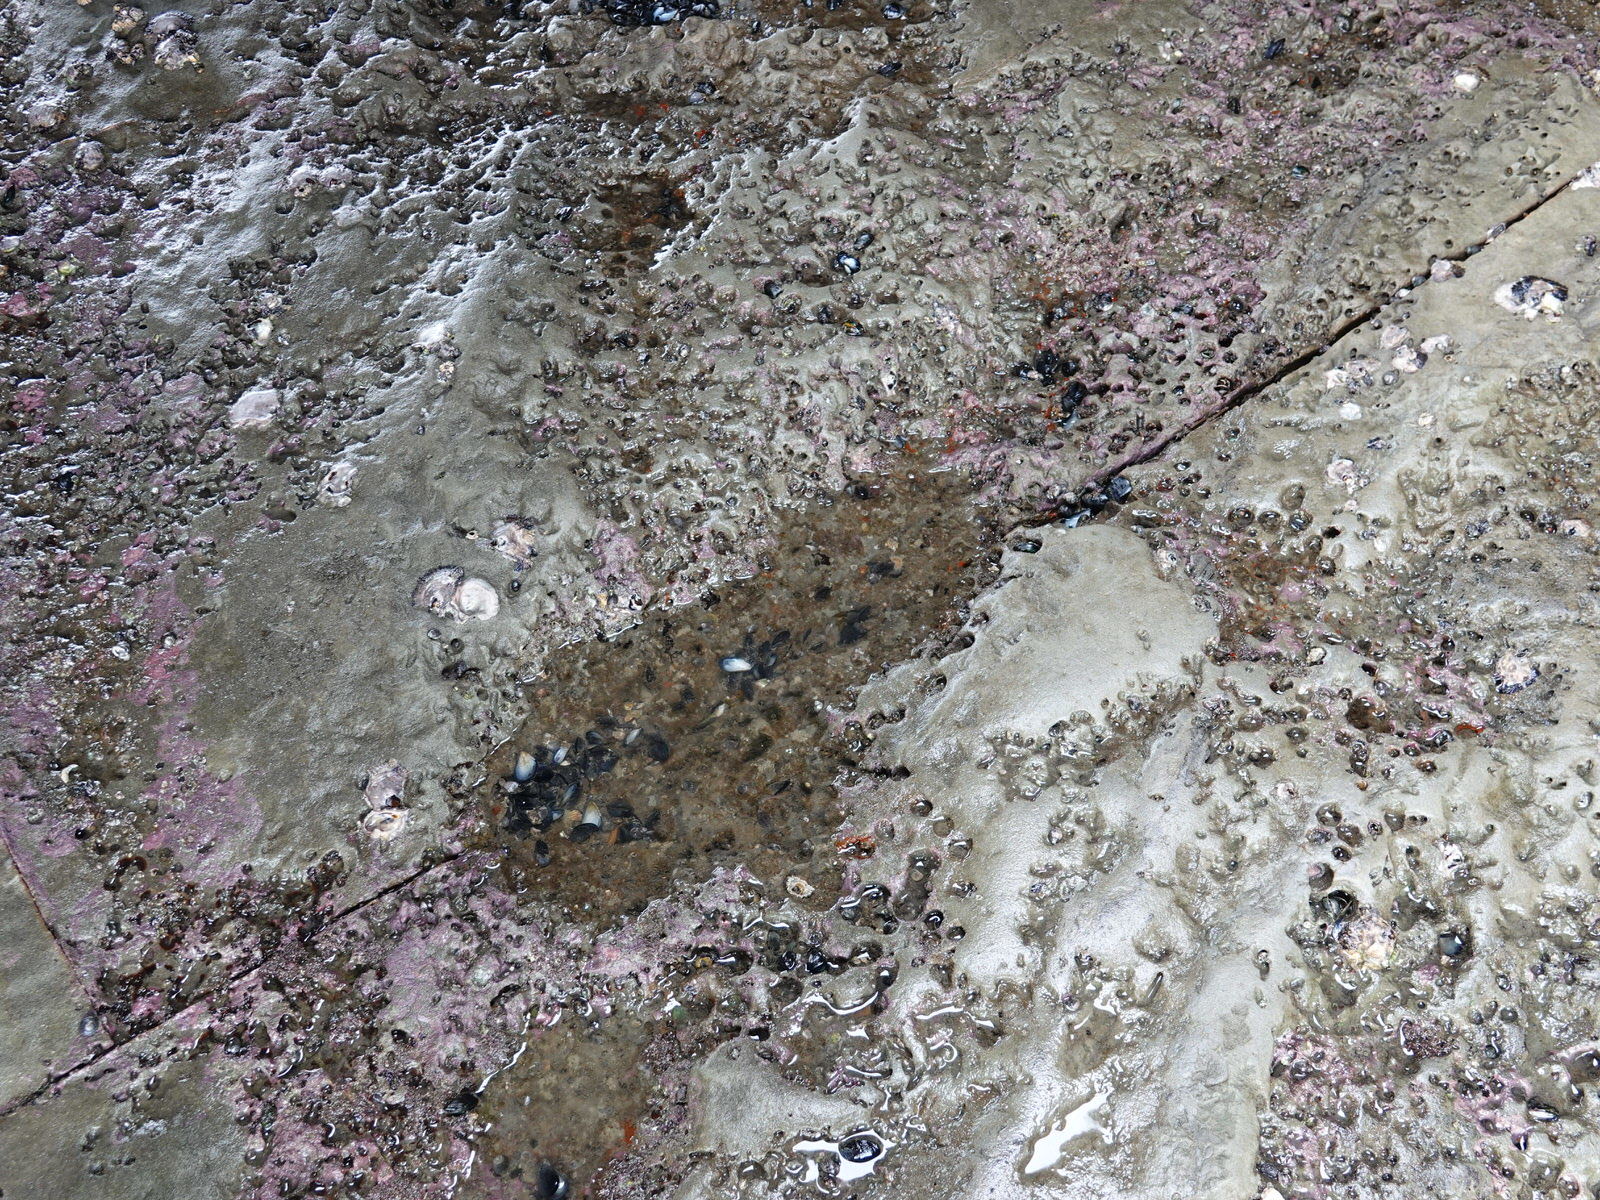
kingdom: Animalia
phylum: Chordata
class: Ascidiacea
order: Stolidobranchia
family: Styelidae
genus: Asterocarpa
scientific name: Asterocarpa humilis
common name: Compass sea squirt
